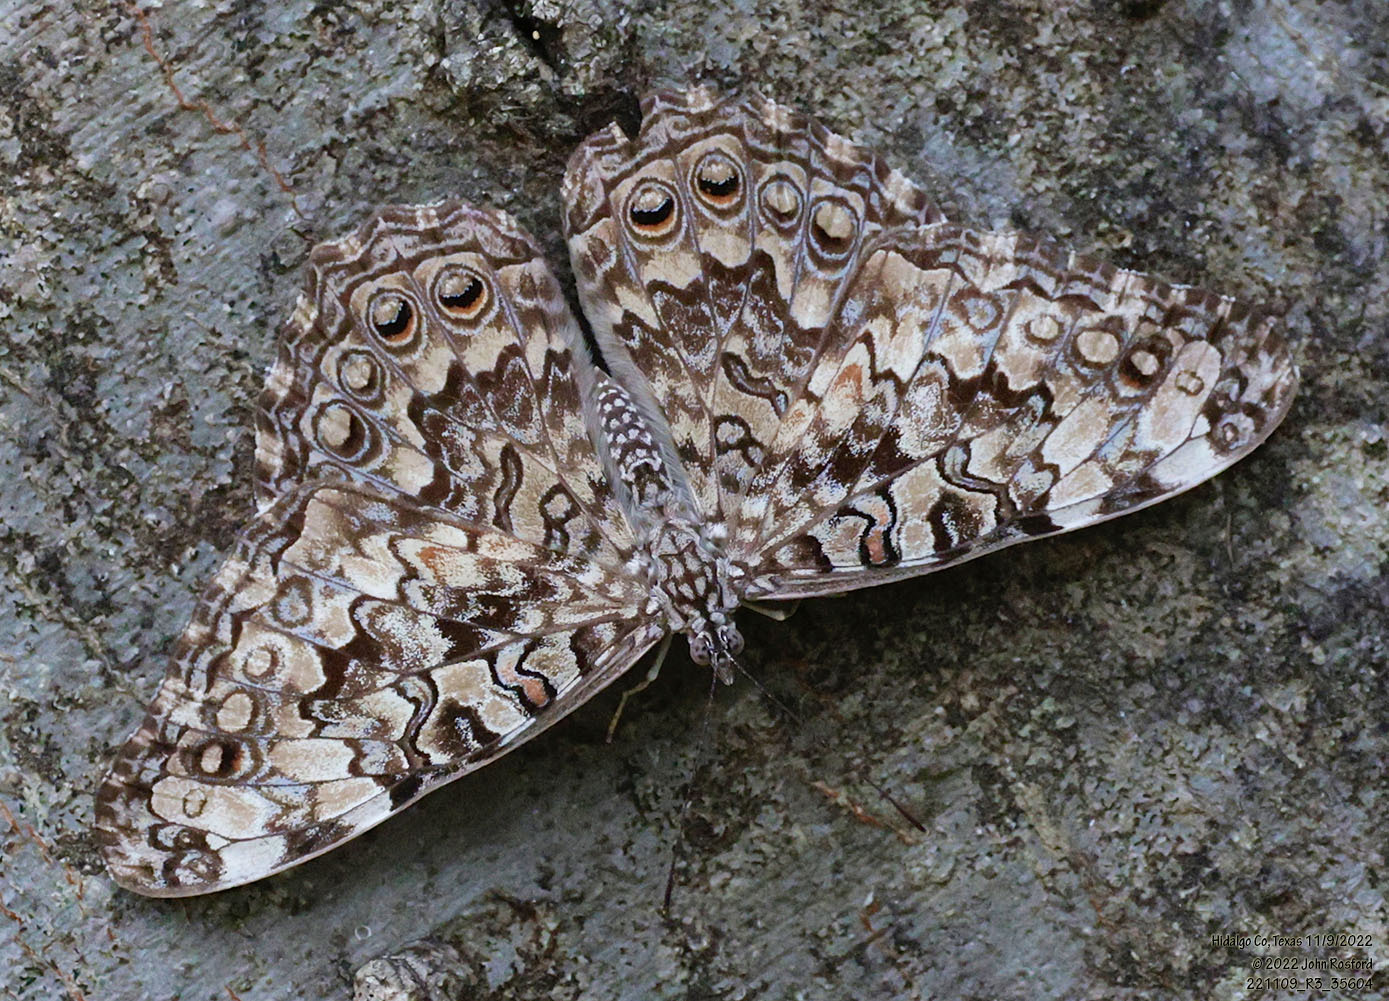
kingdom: Animalia
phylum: Arthropoda
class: Insecta
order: Lepidoptera
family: Nymphalidae
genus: Hamadryas
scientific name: Hamadryas februa
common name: Gray cracker
